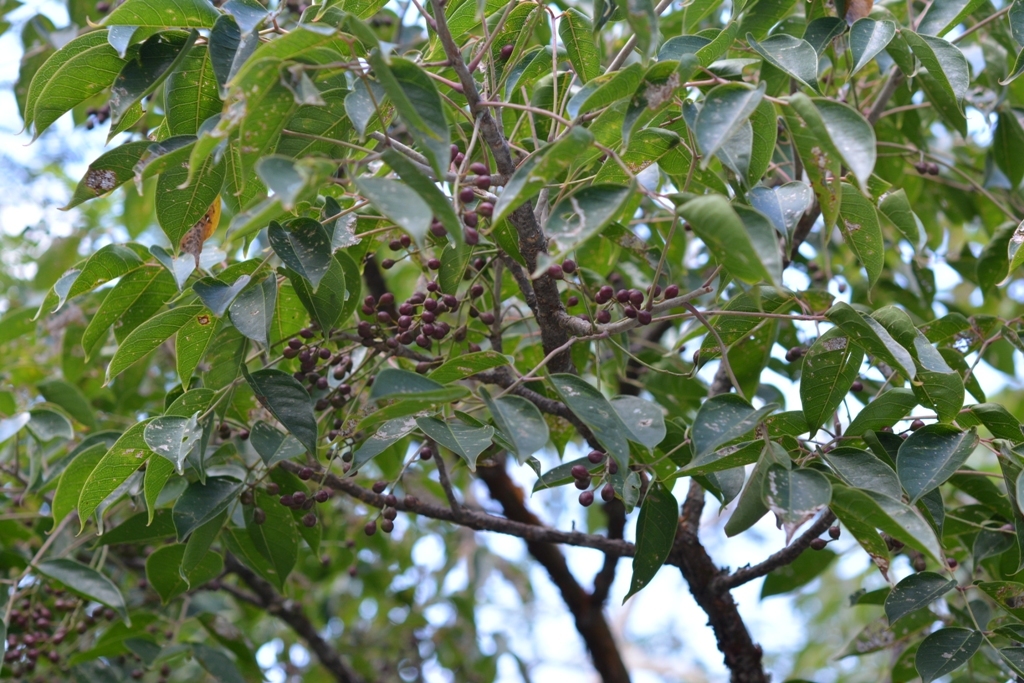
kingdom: Plantae
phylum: Tracheophyta
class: Magnoliopsida
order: Sapindales
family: Burseraceae
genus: Bursera
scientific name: Bursera simaruba
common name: Turpentine tree
